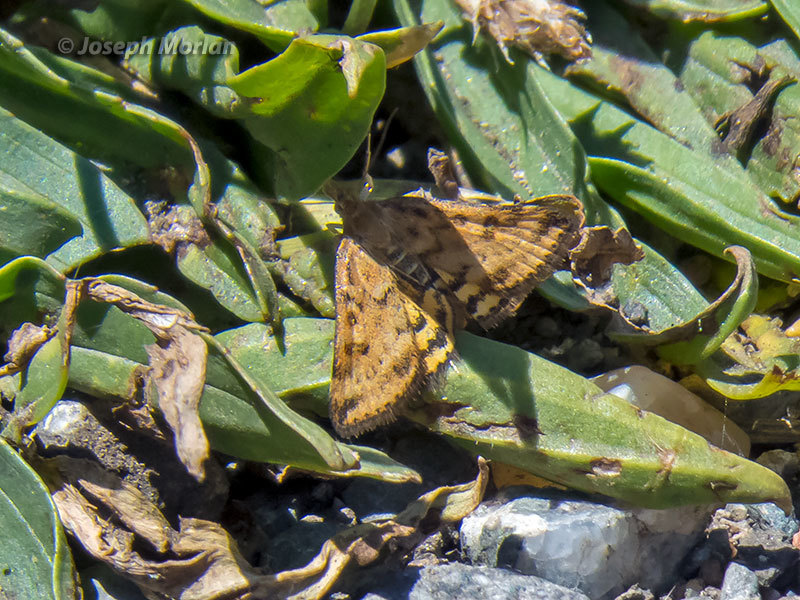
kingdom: Animalia
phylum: Arthropoda
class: Insecta
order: Lepidoptera
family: Crambidae
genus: Pyrausta
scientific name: Pyrausta subsequalis
